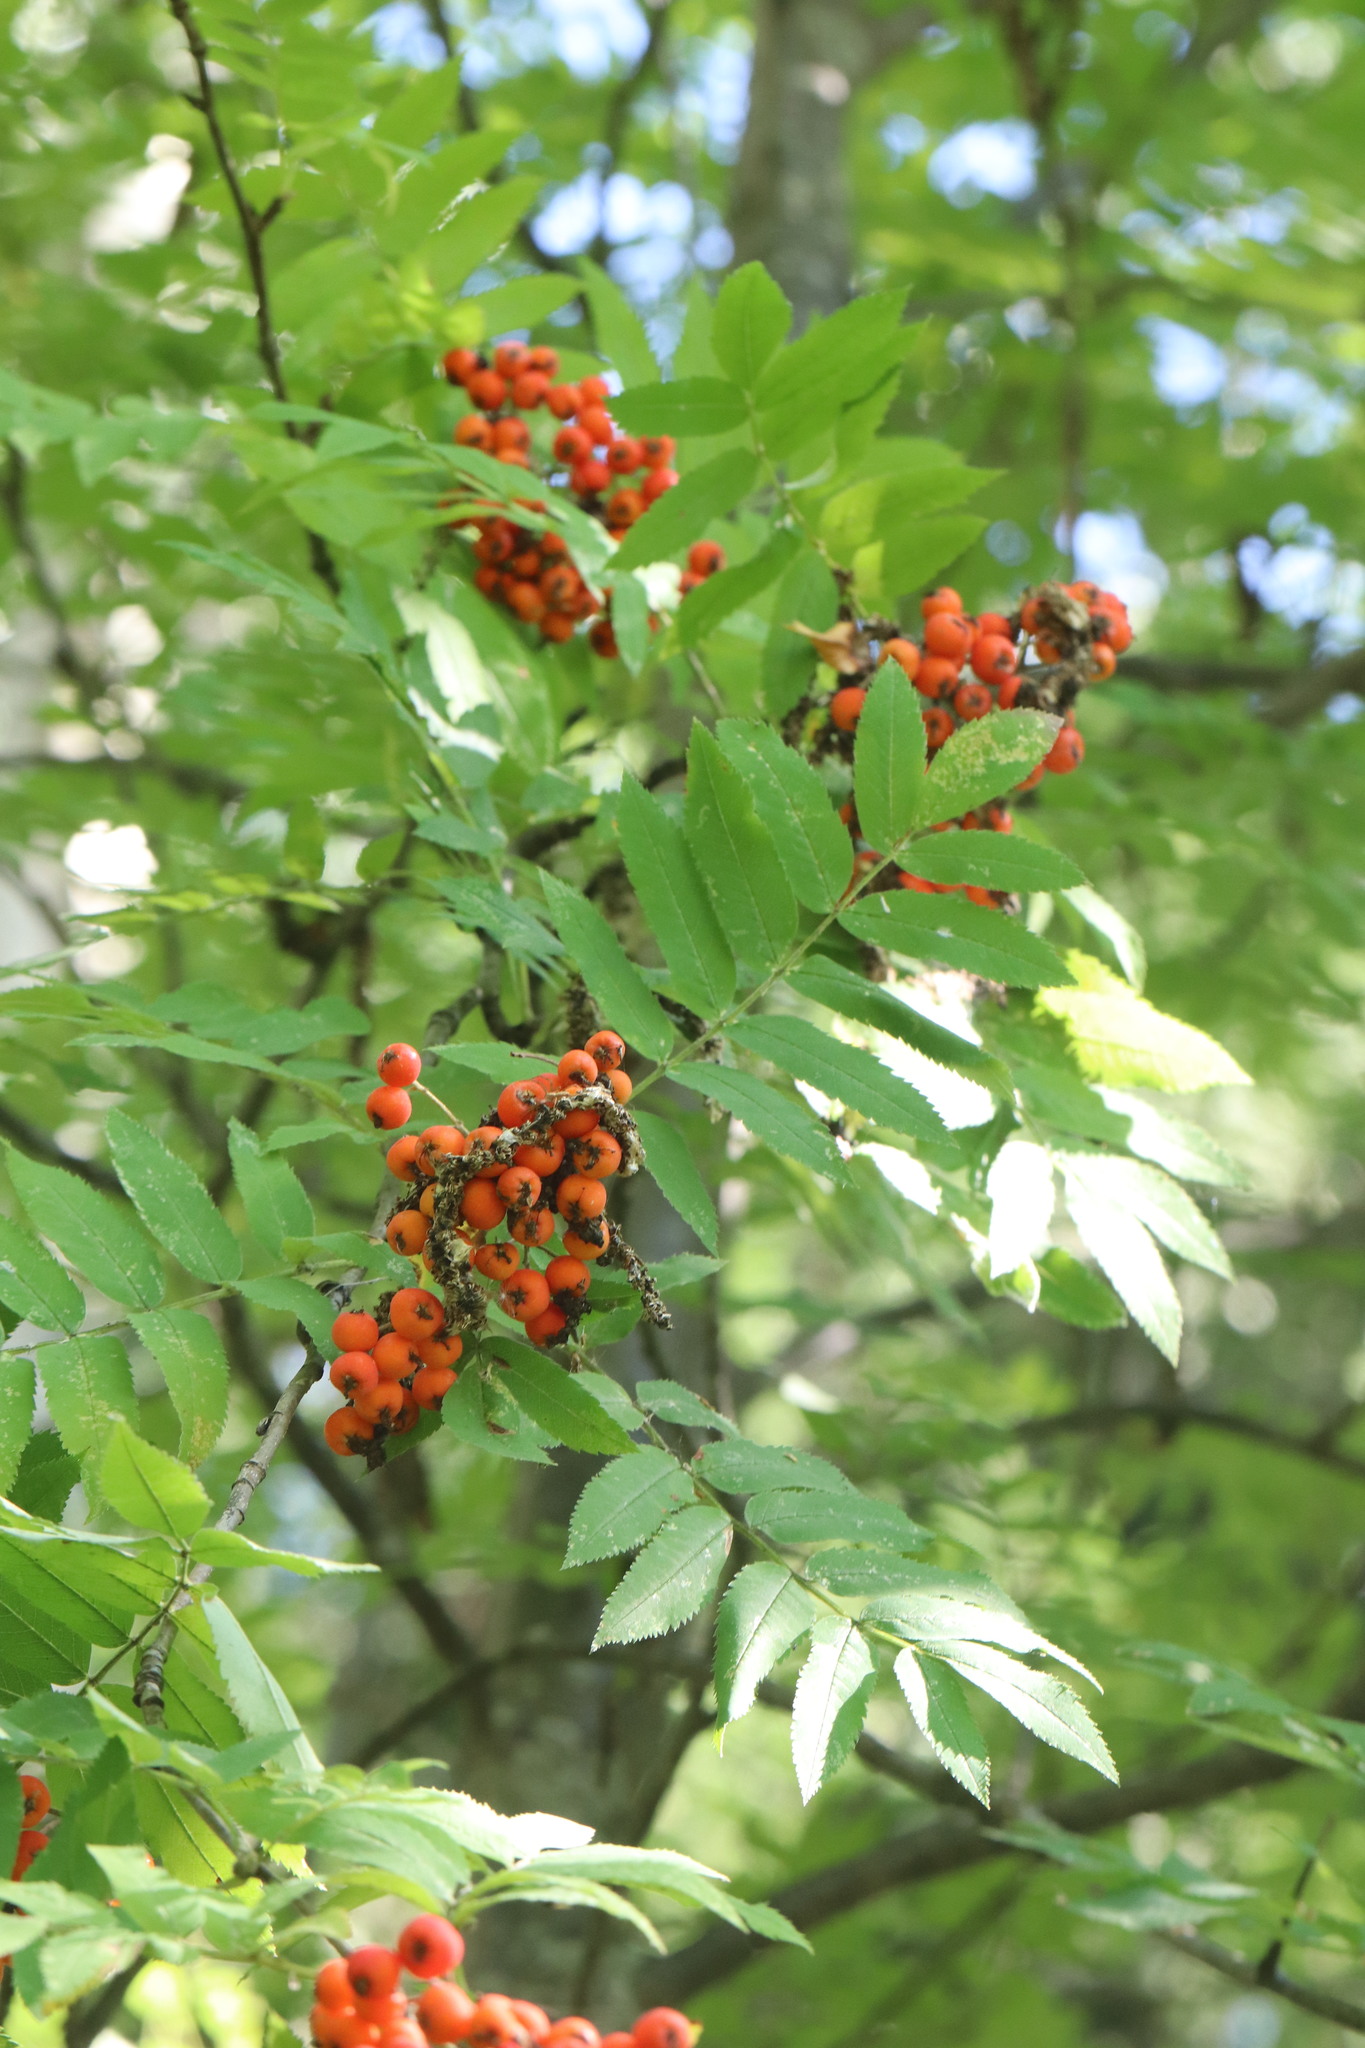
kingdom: Plantae
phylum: Tracheophyta
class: Magnoliopsida
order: Rosales
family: Rosaceae
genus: Sorbus
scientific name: Sorbus aucuparia
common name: Rowan
